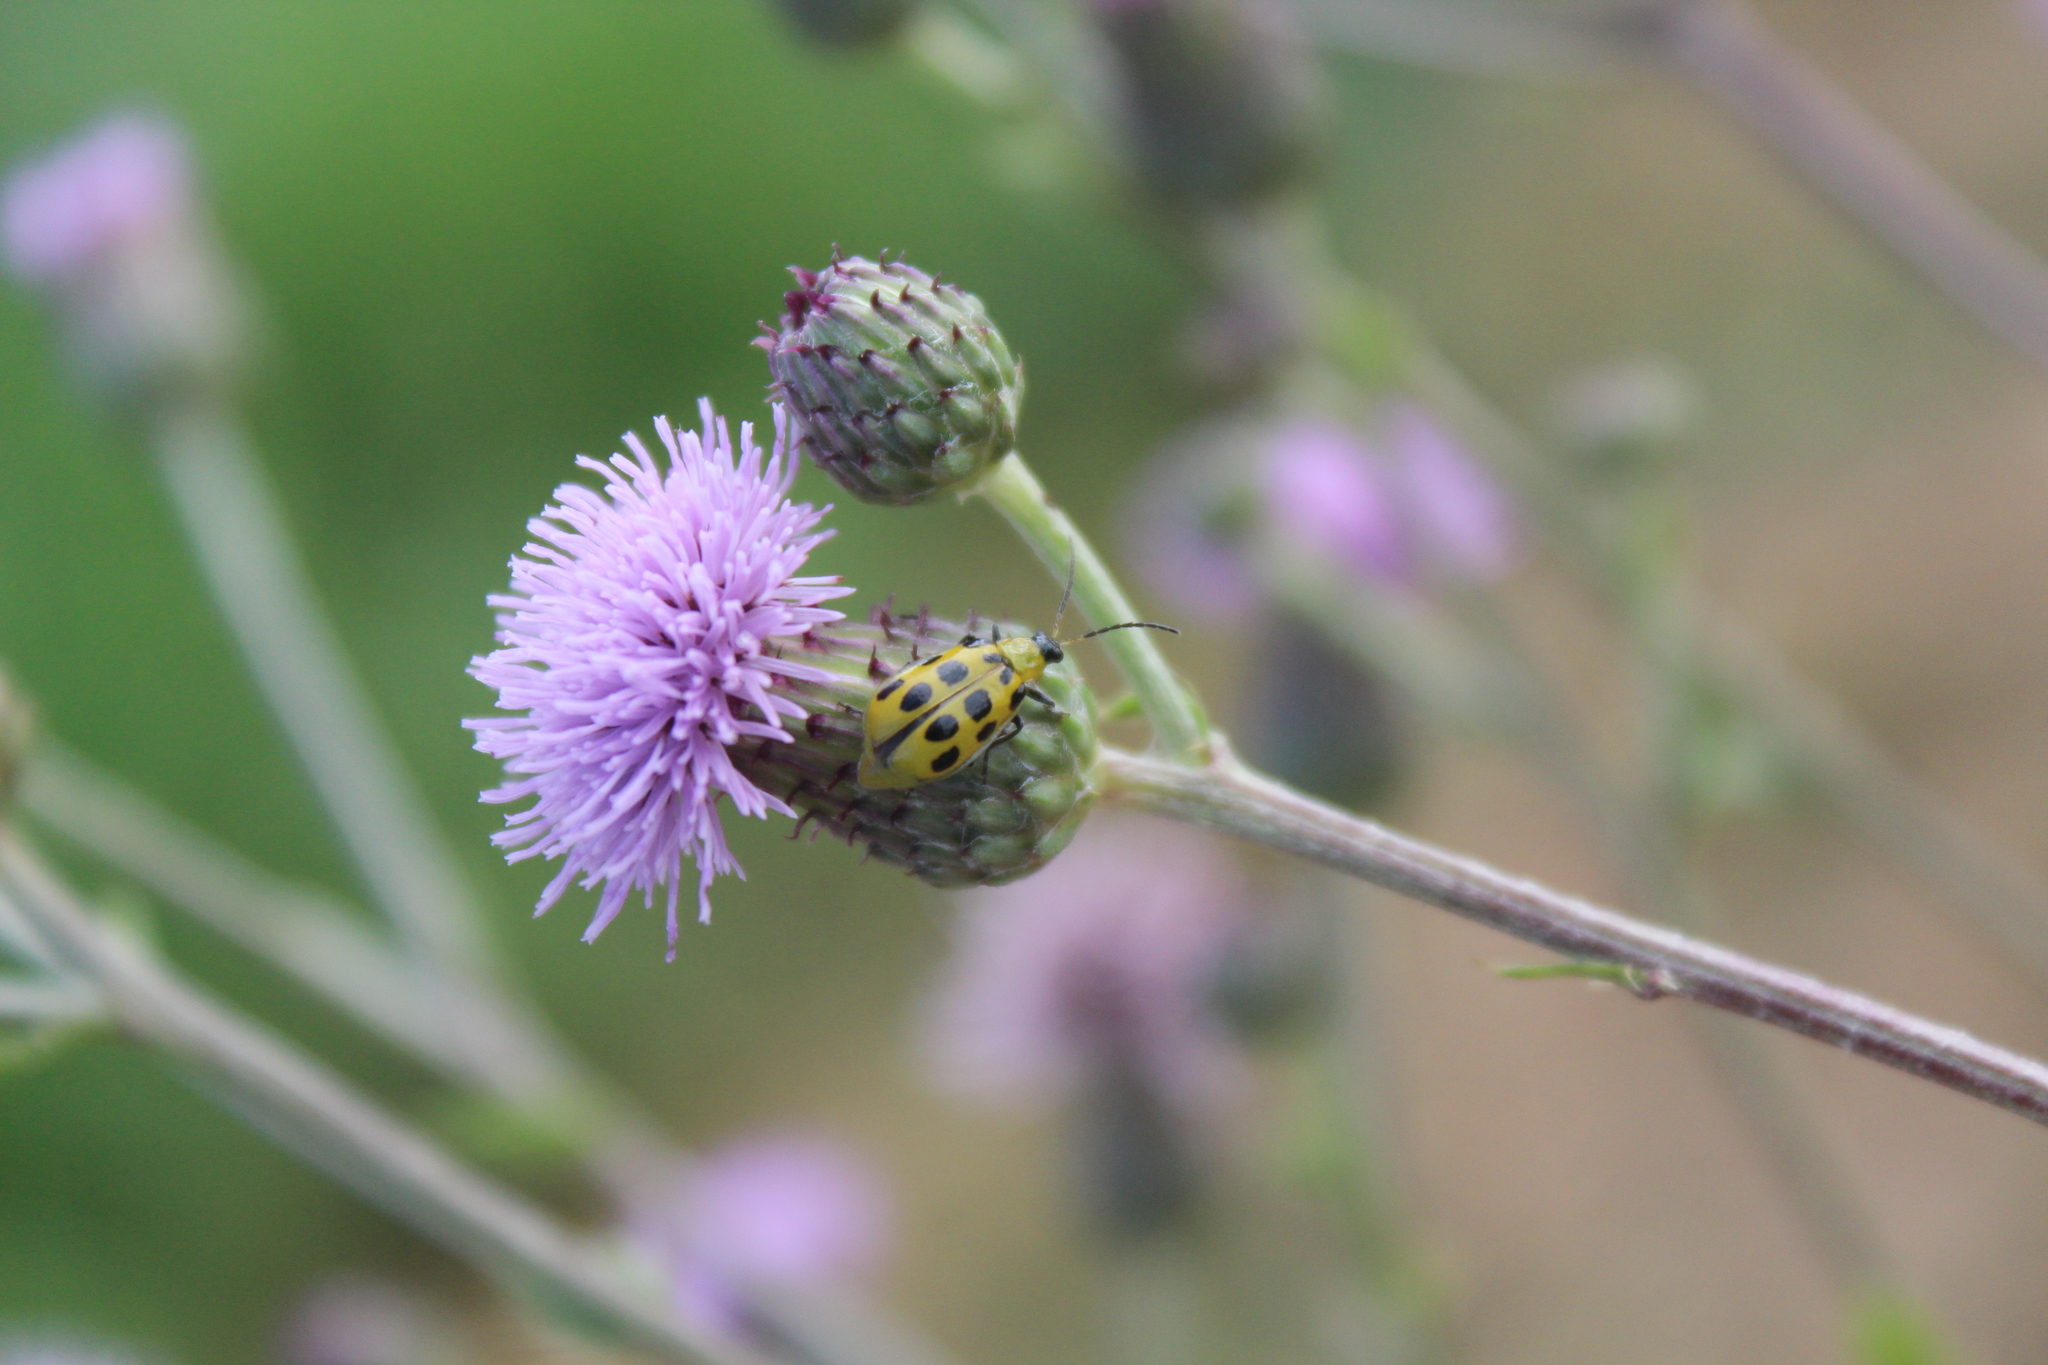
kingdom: Animalia
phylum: Arthropoda
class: Insecta
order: Coleoptera
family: Chrysomelidae
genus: Diabrotica
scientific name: Diabrotica undecimpunctata
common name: Spotted cucumber beetle
